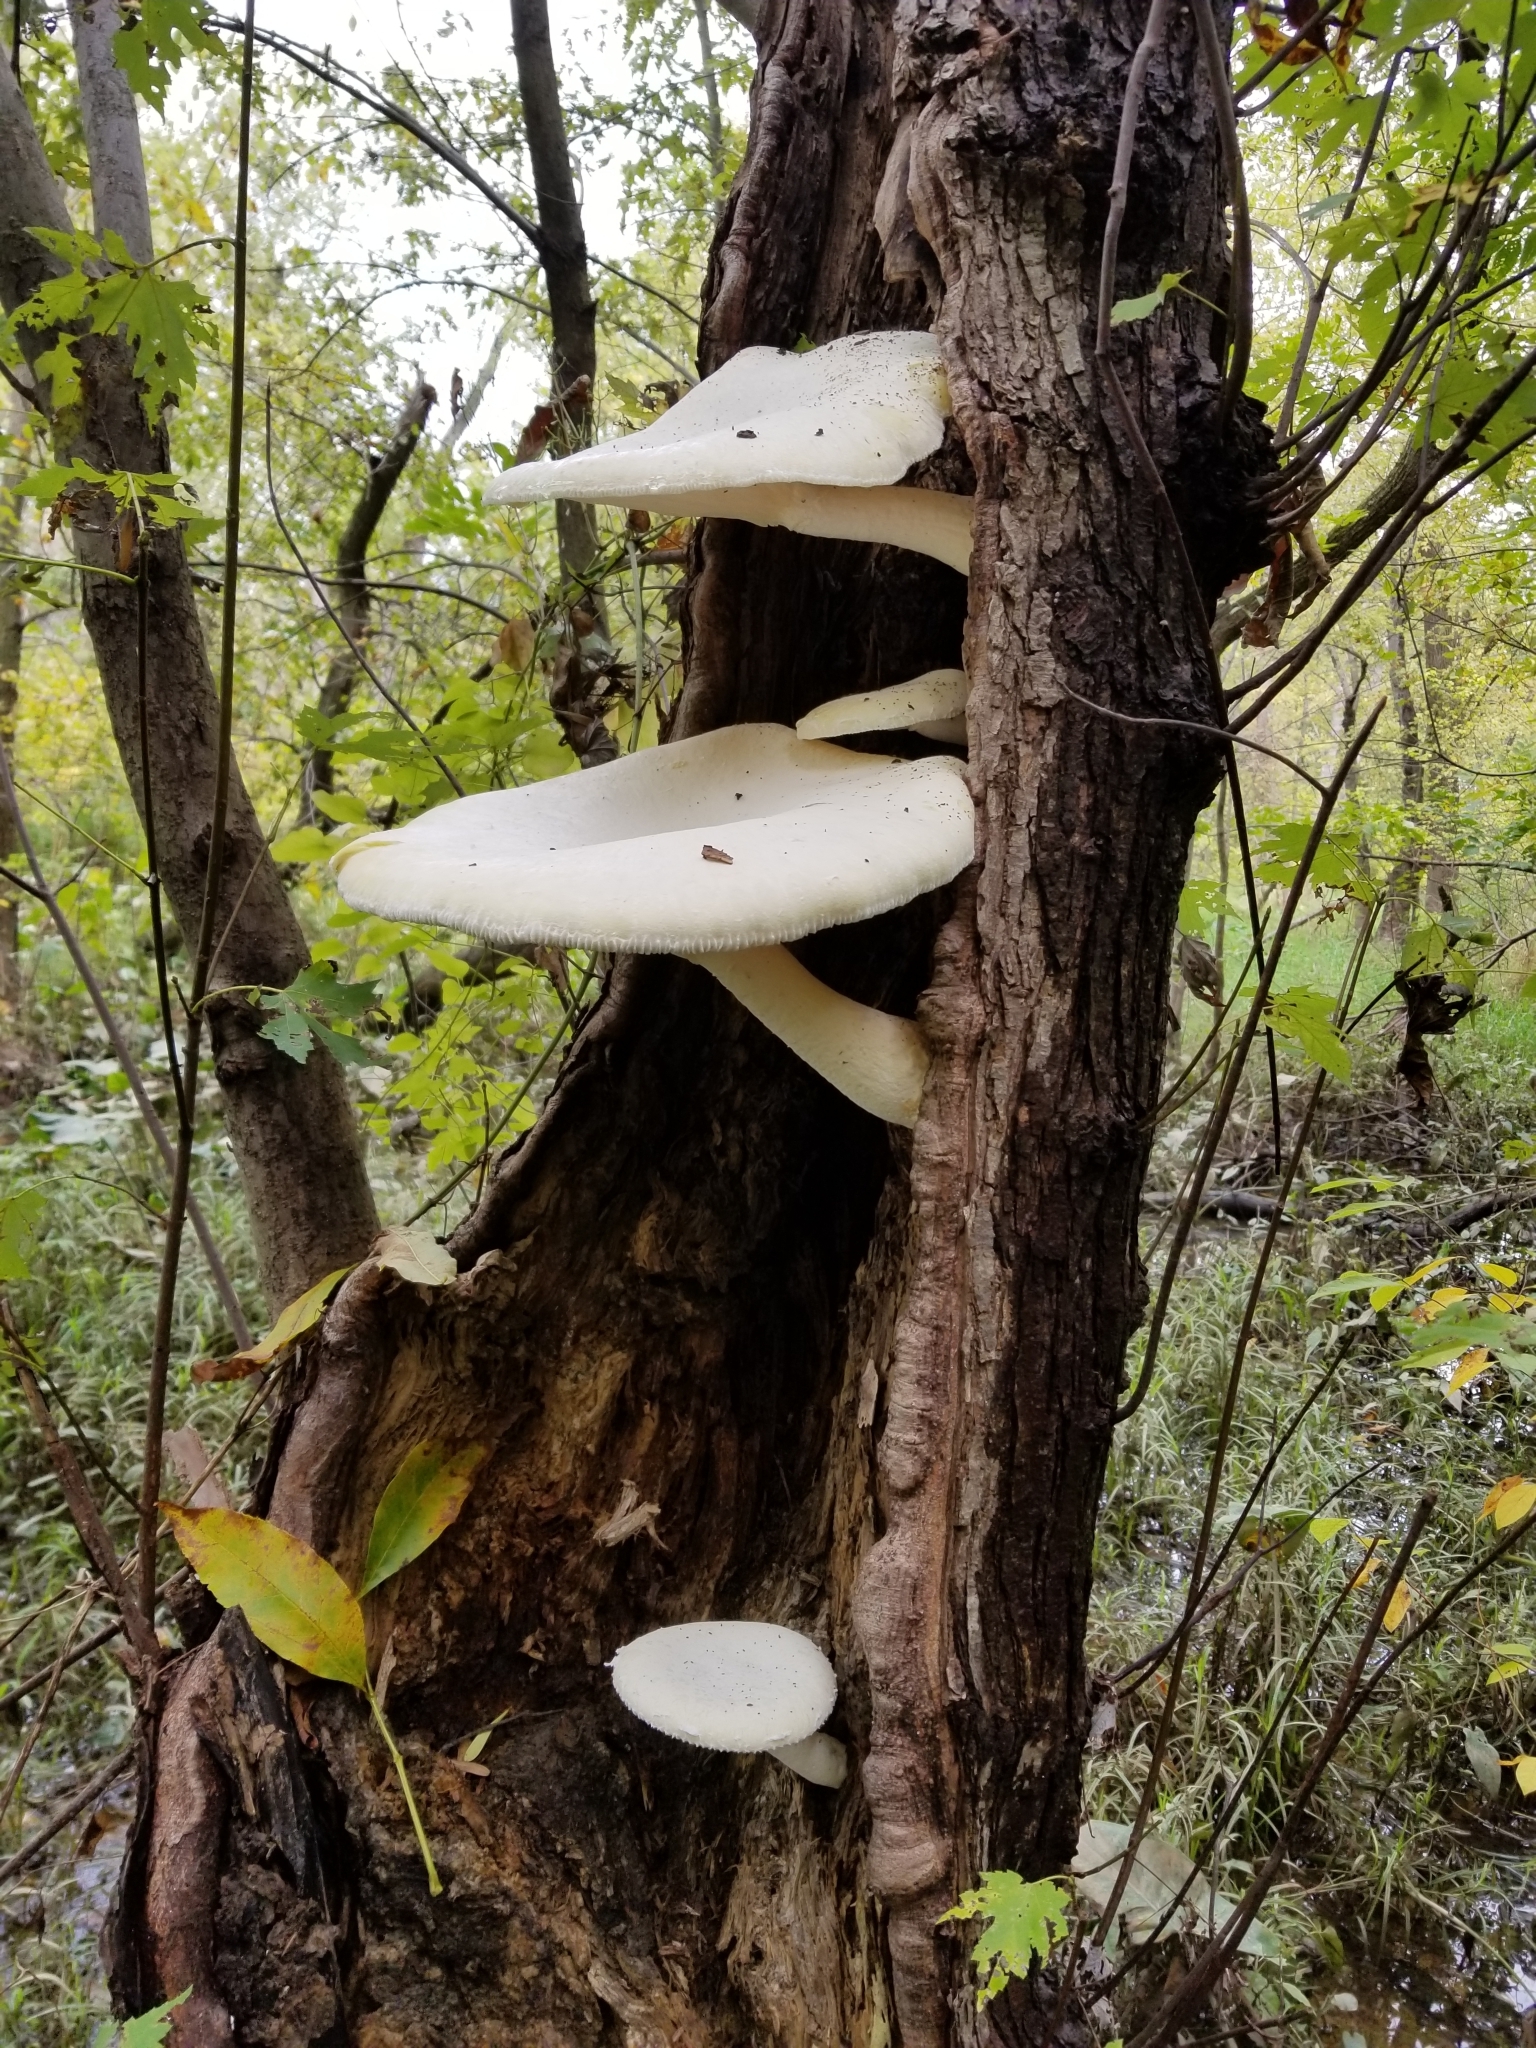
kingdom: Fungi
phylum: Basidiomycota
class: Agaricomycetes
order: Polyporales
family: Polyporaceae
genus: Lentinus
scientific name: Lentinus levis
